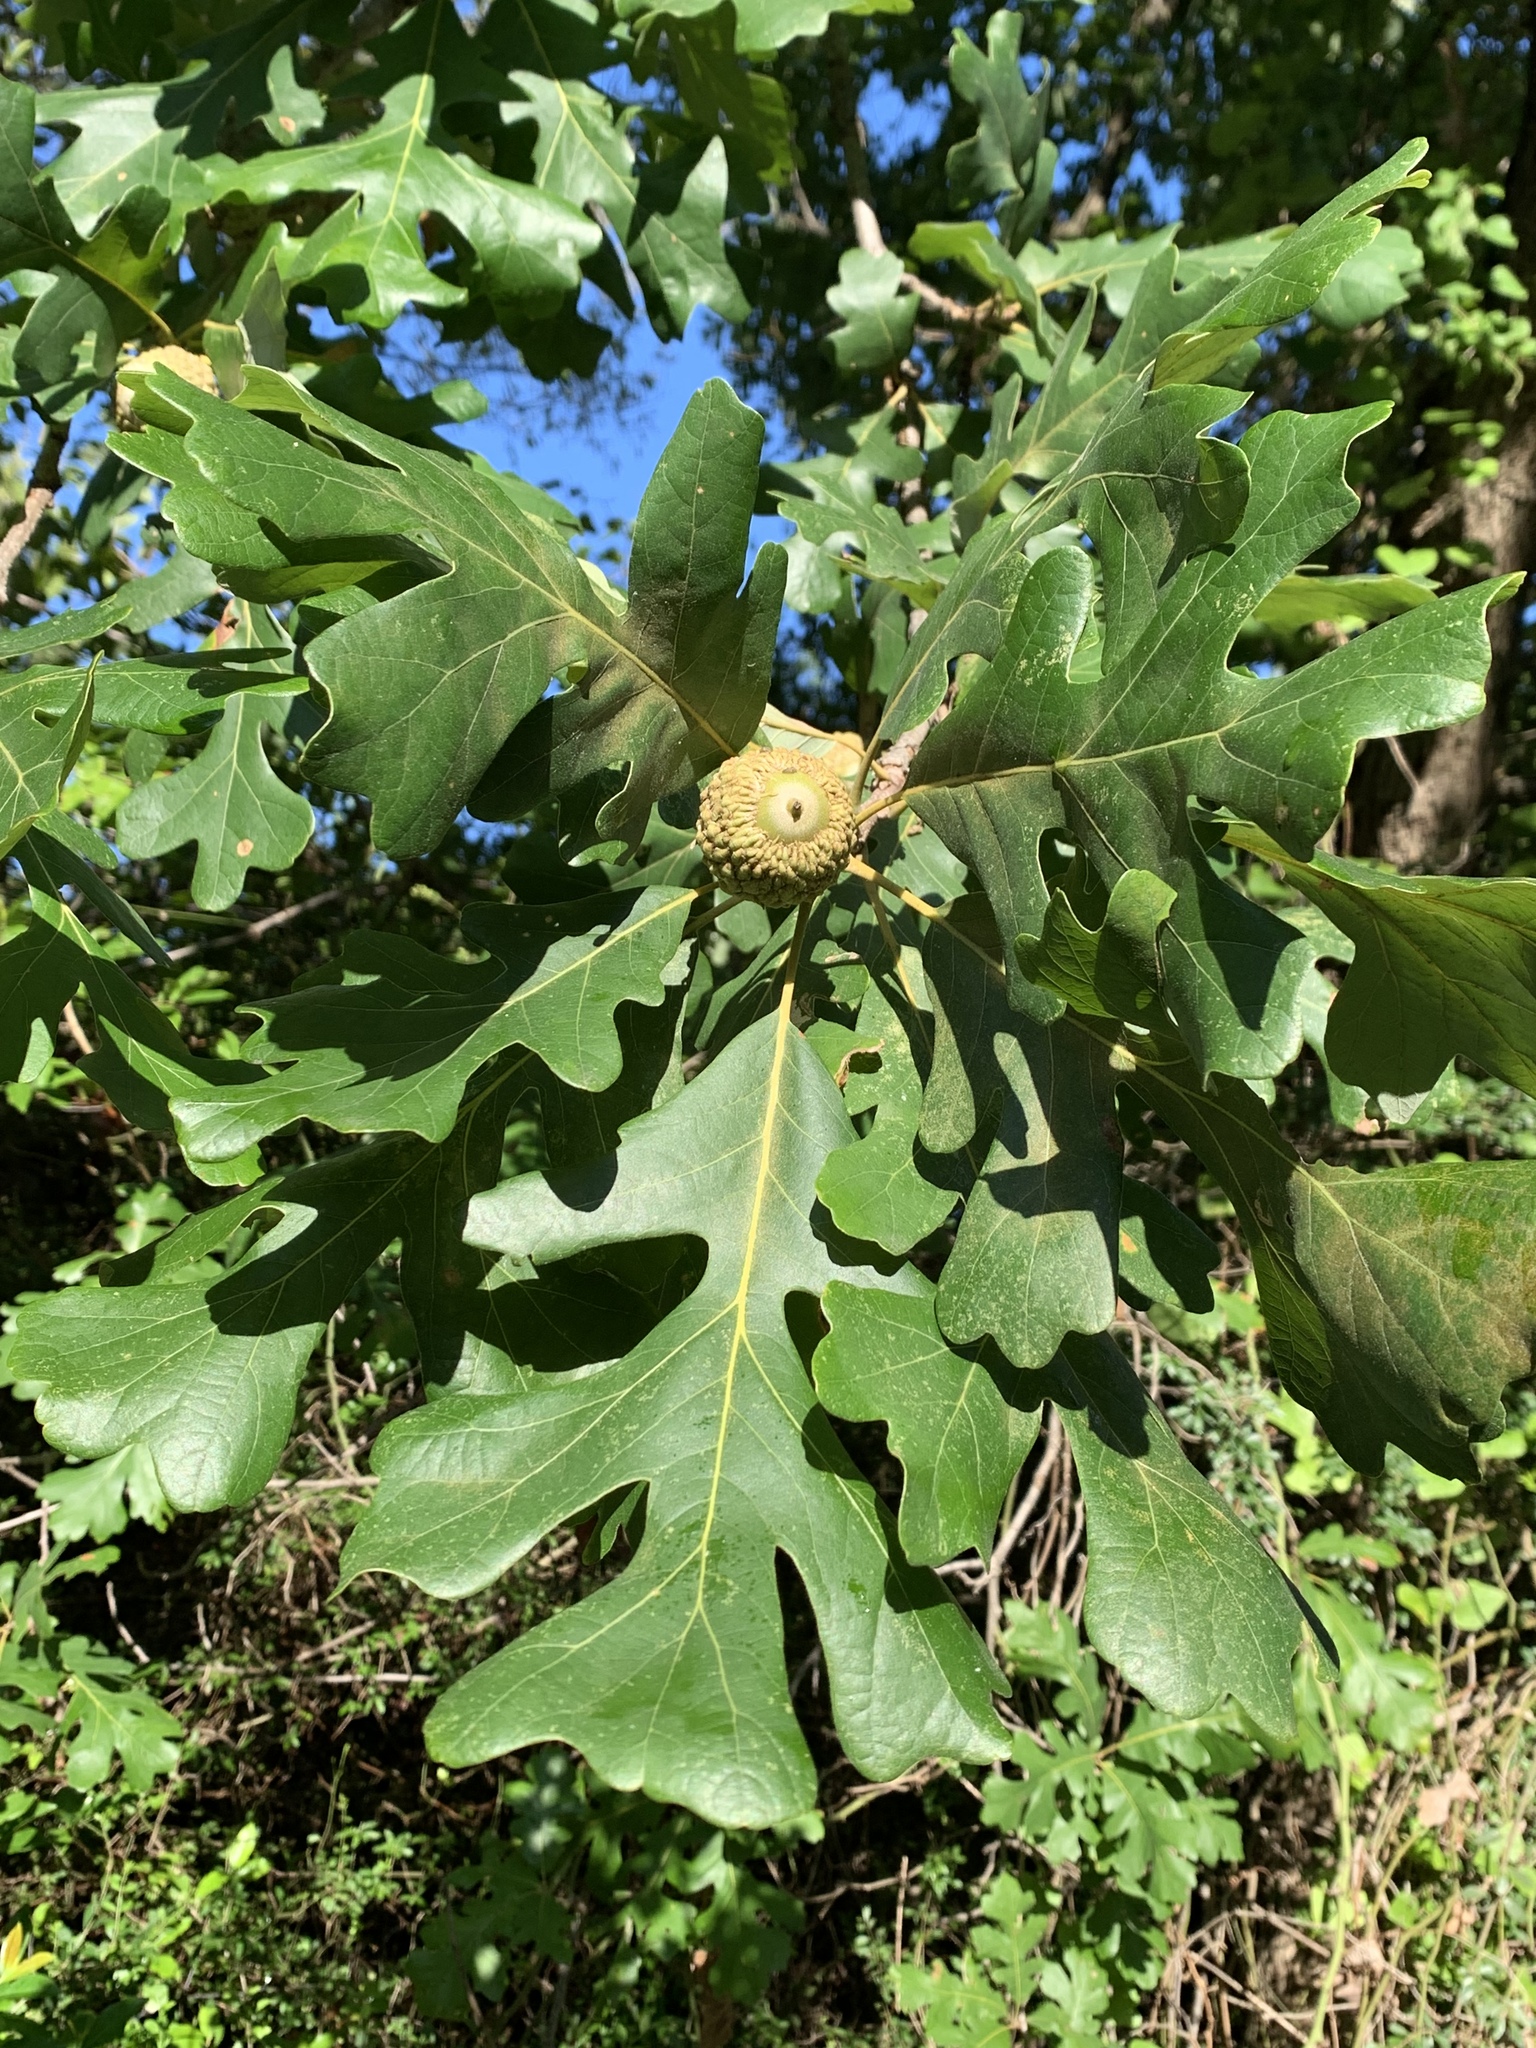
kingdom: Plantae
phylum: Tracheophyta
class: Magnoliopsida
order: Fagales
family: Fagaceae
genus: Quercus
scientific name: Quercus macrocarpa
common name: Bur oak
